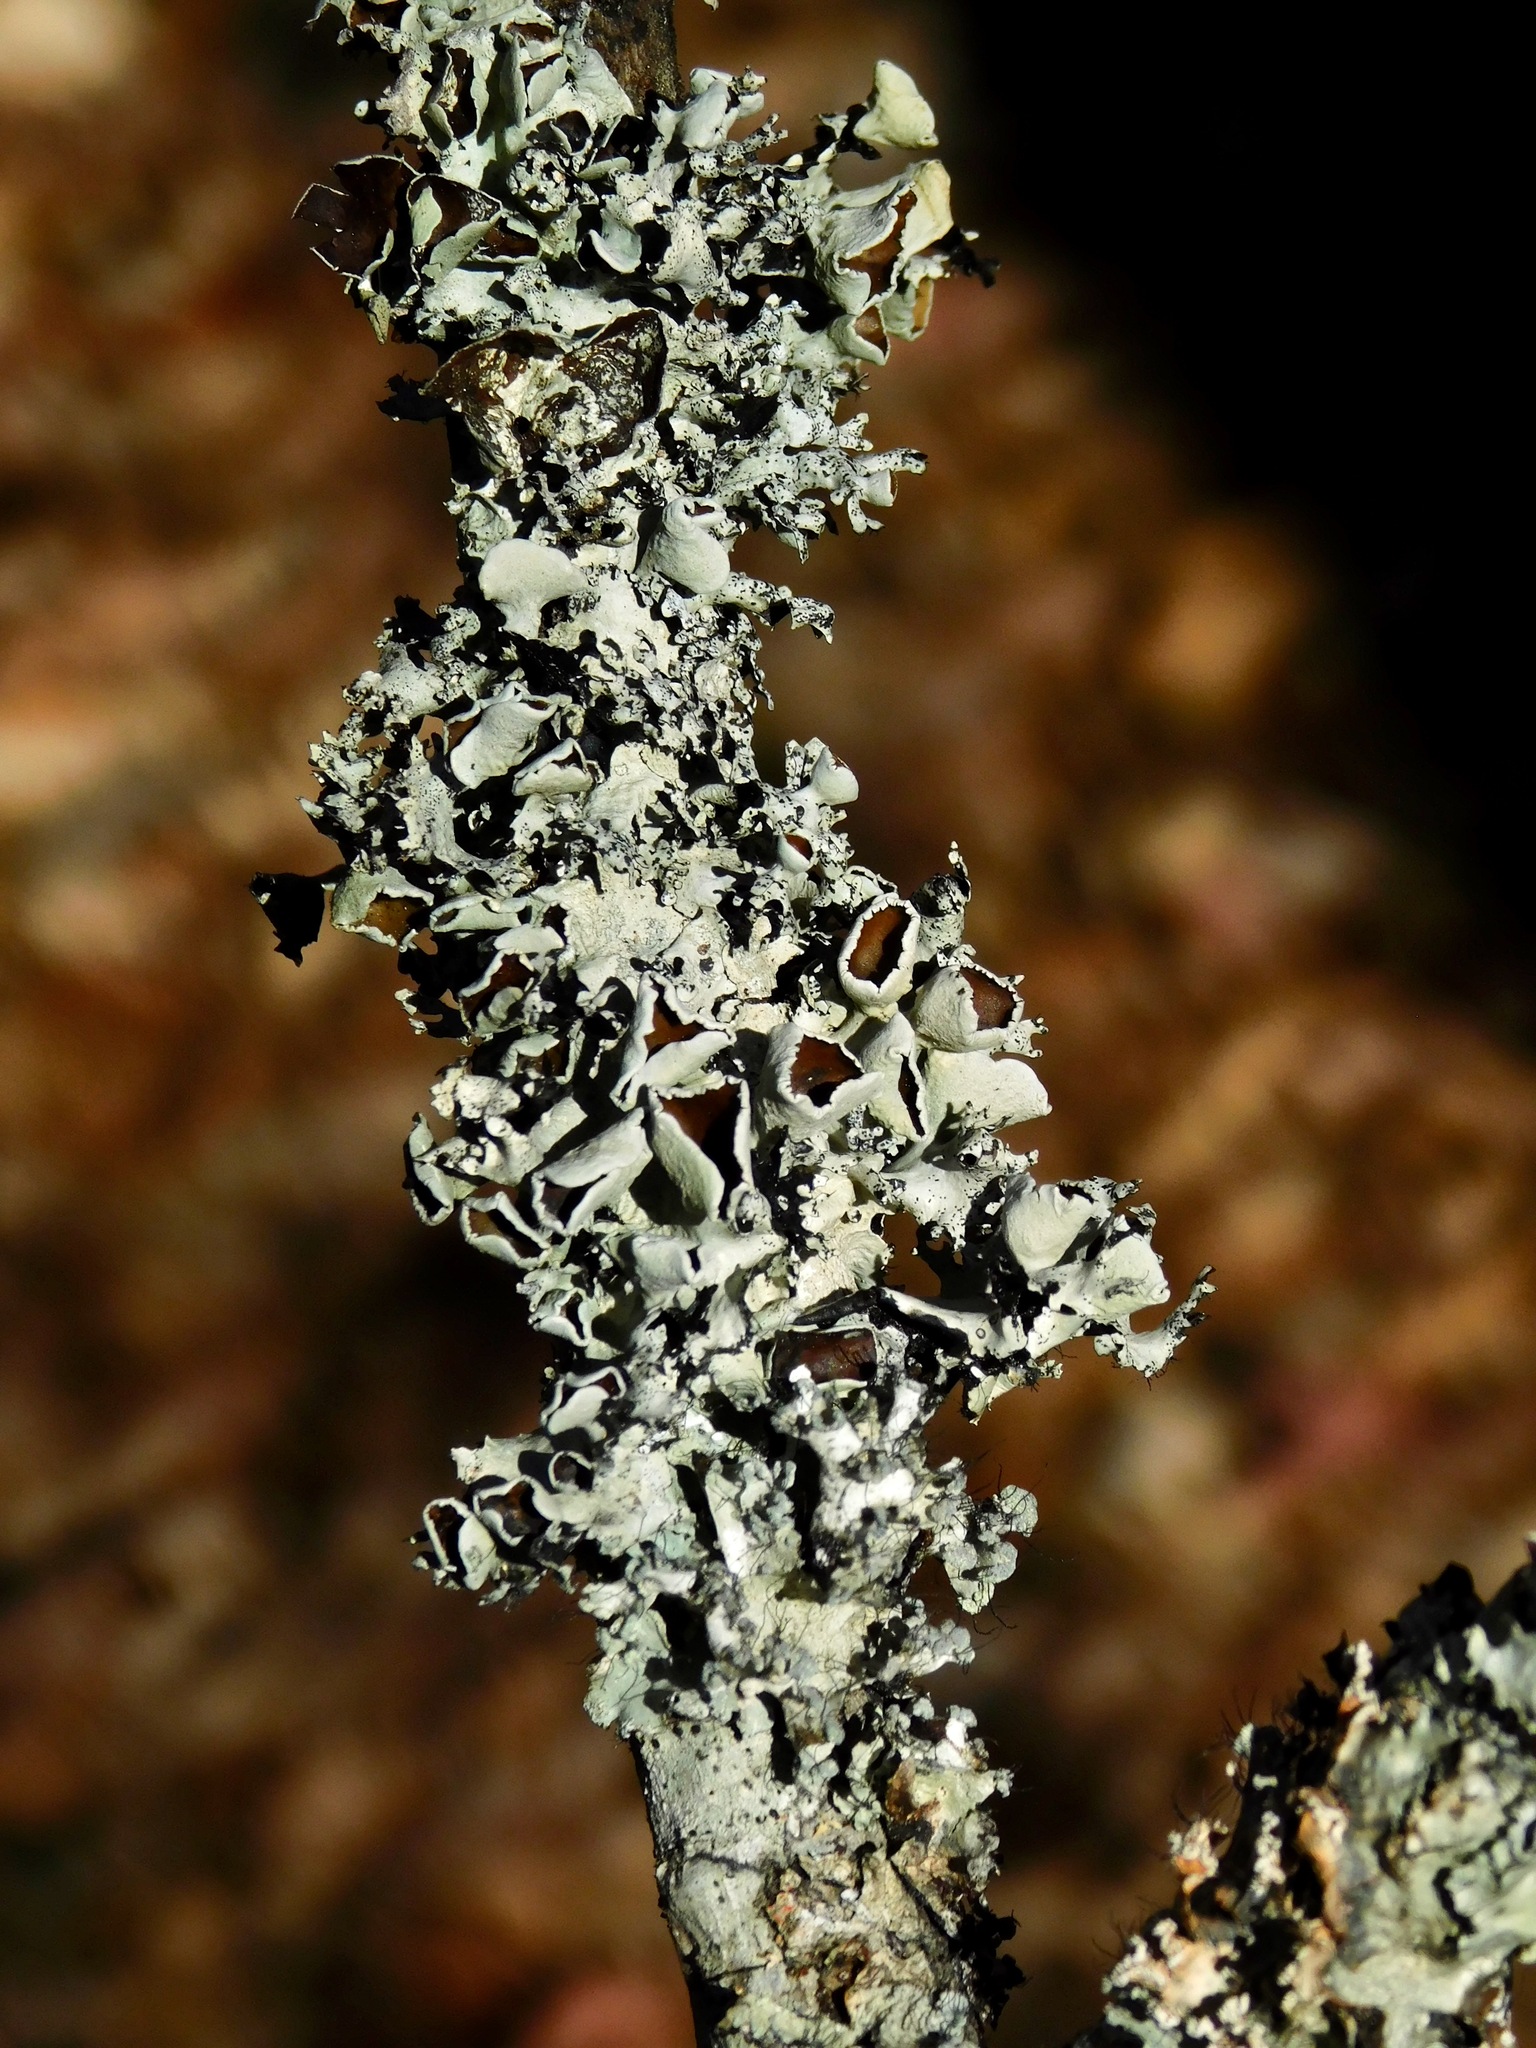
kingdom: Fungi
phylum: Ascomycota
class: Lecanoromycetes
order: Lecanorales
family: Parmeliaceae
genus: Parmotrema
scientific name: Parmotrema cetratum
